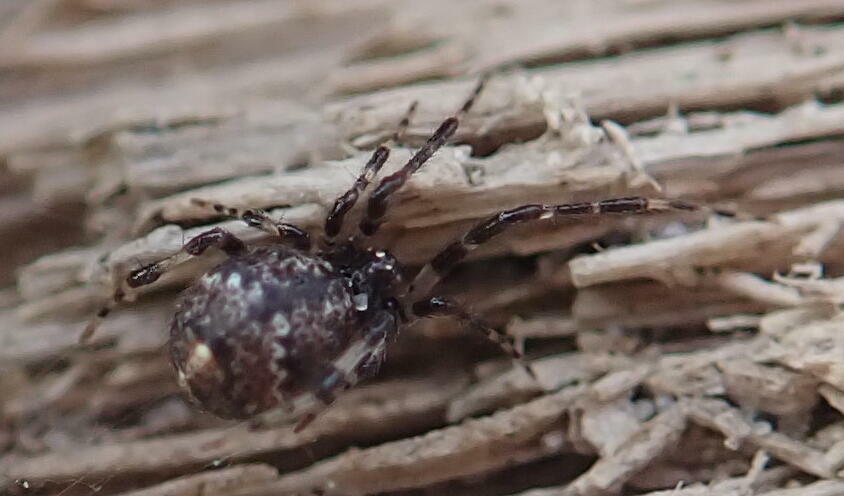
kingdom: Animalia
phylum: Arthropoda
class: Arachnida
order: Araneae
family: Theridiidae
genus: Cryptachaea
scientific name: Cryptachaea blattea
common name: Theridiid spider
